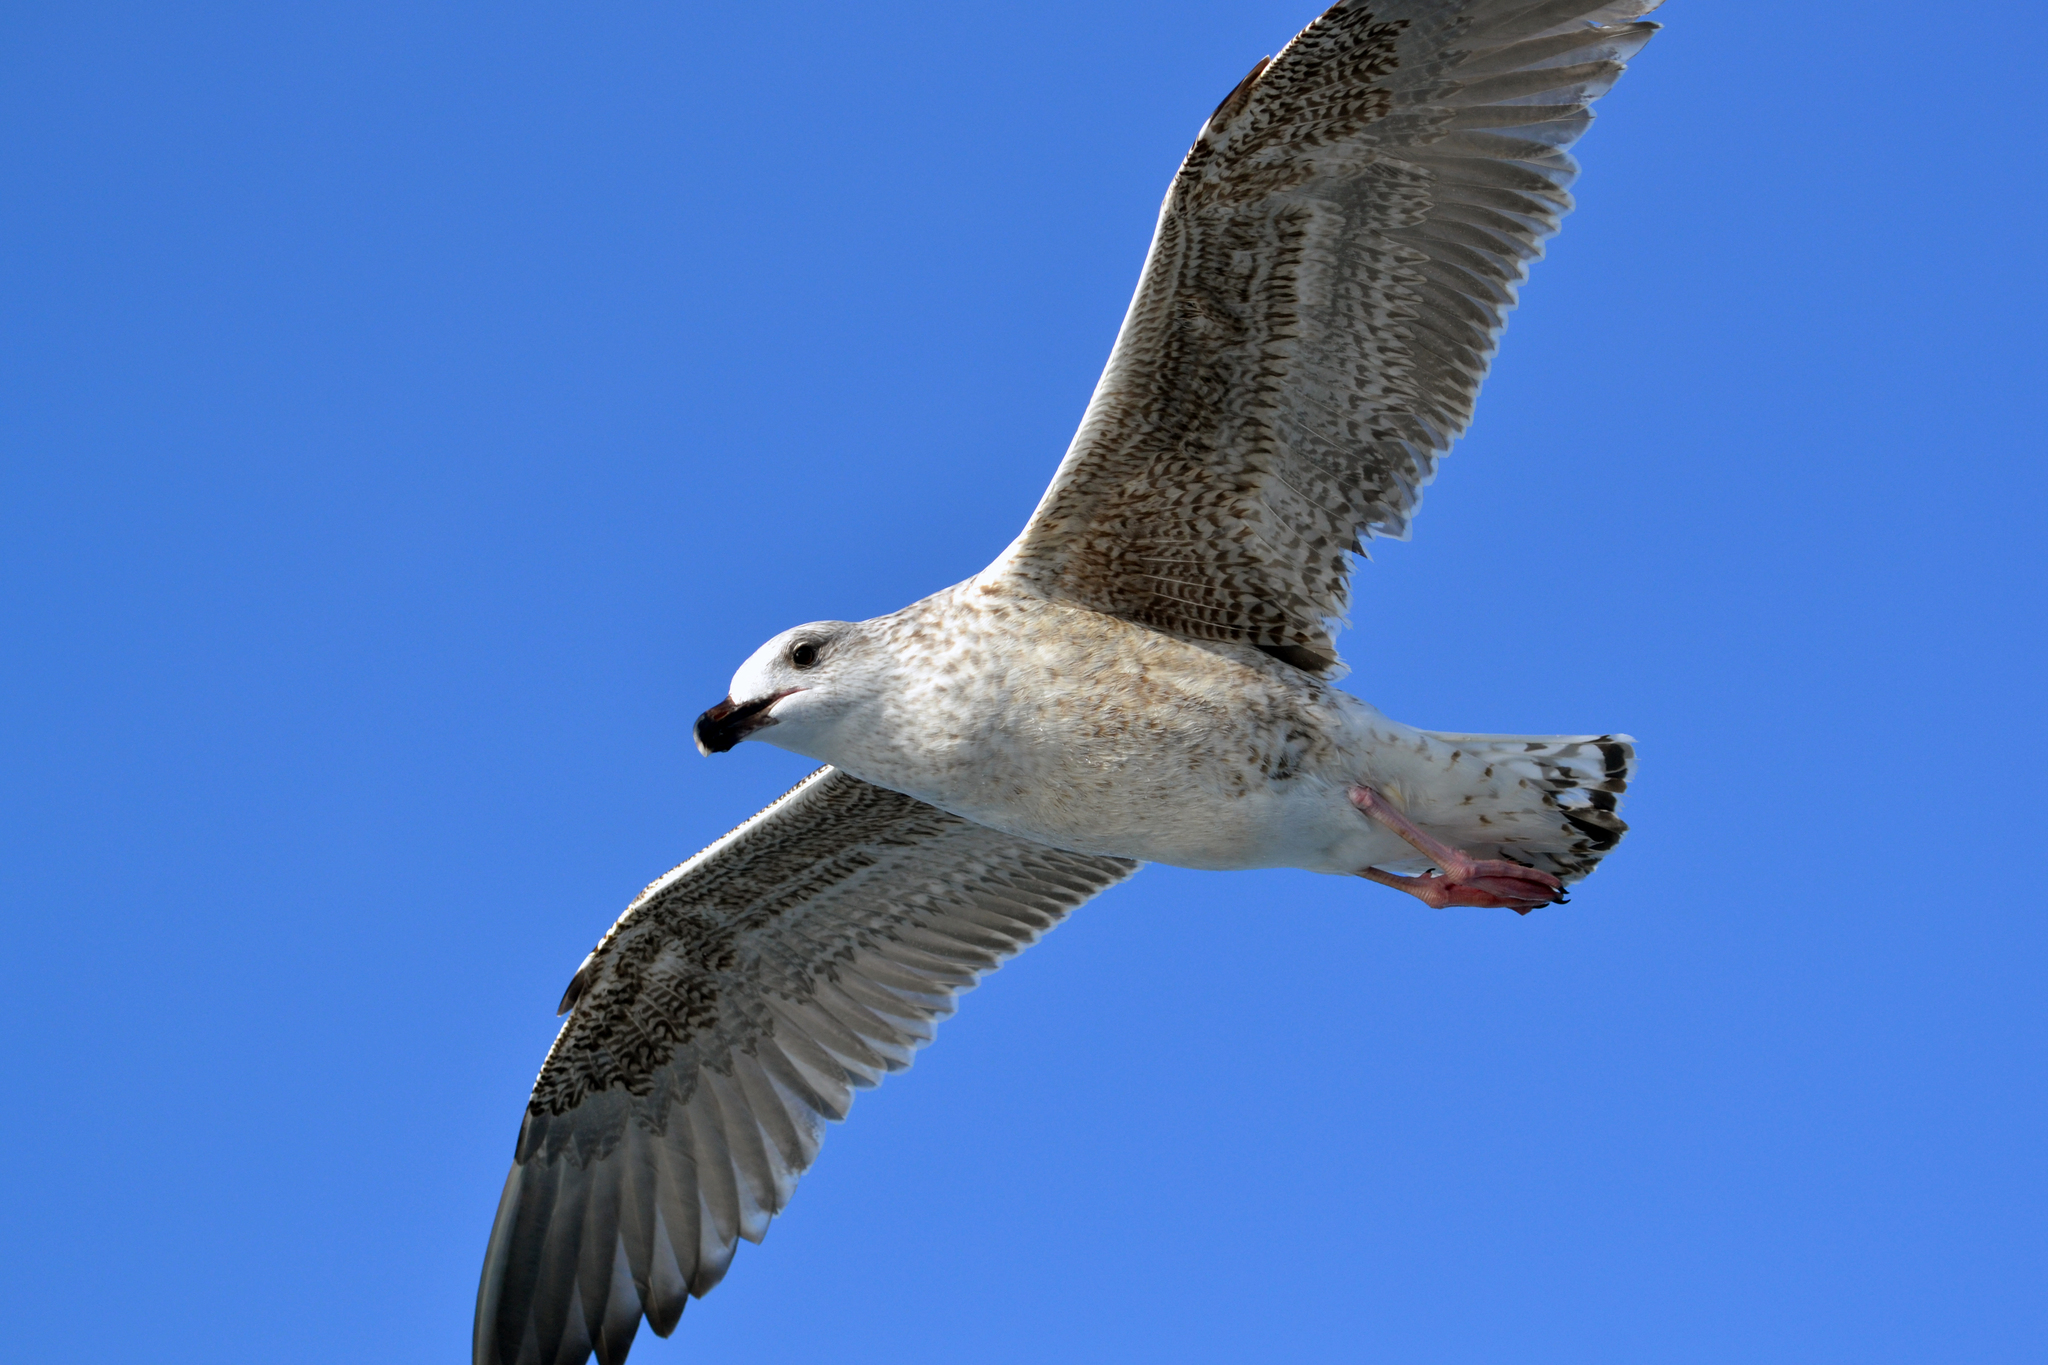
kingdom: Animalia
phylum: Chordata
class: Aves
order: Charadriiformes
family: Laridae
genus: Larus
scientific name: Larus marinus
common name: Great black-backed gull
